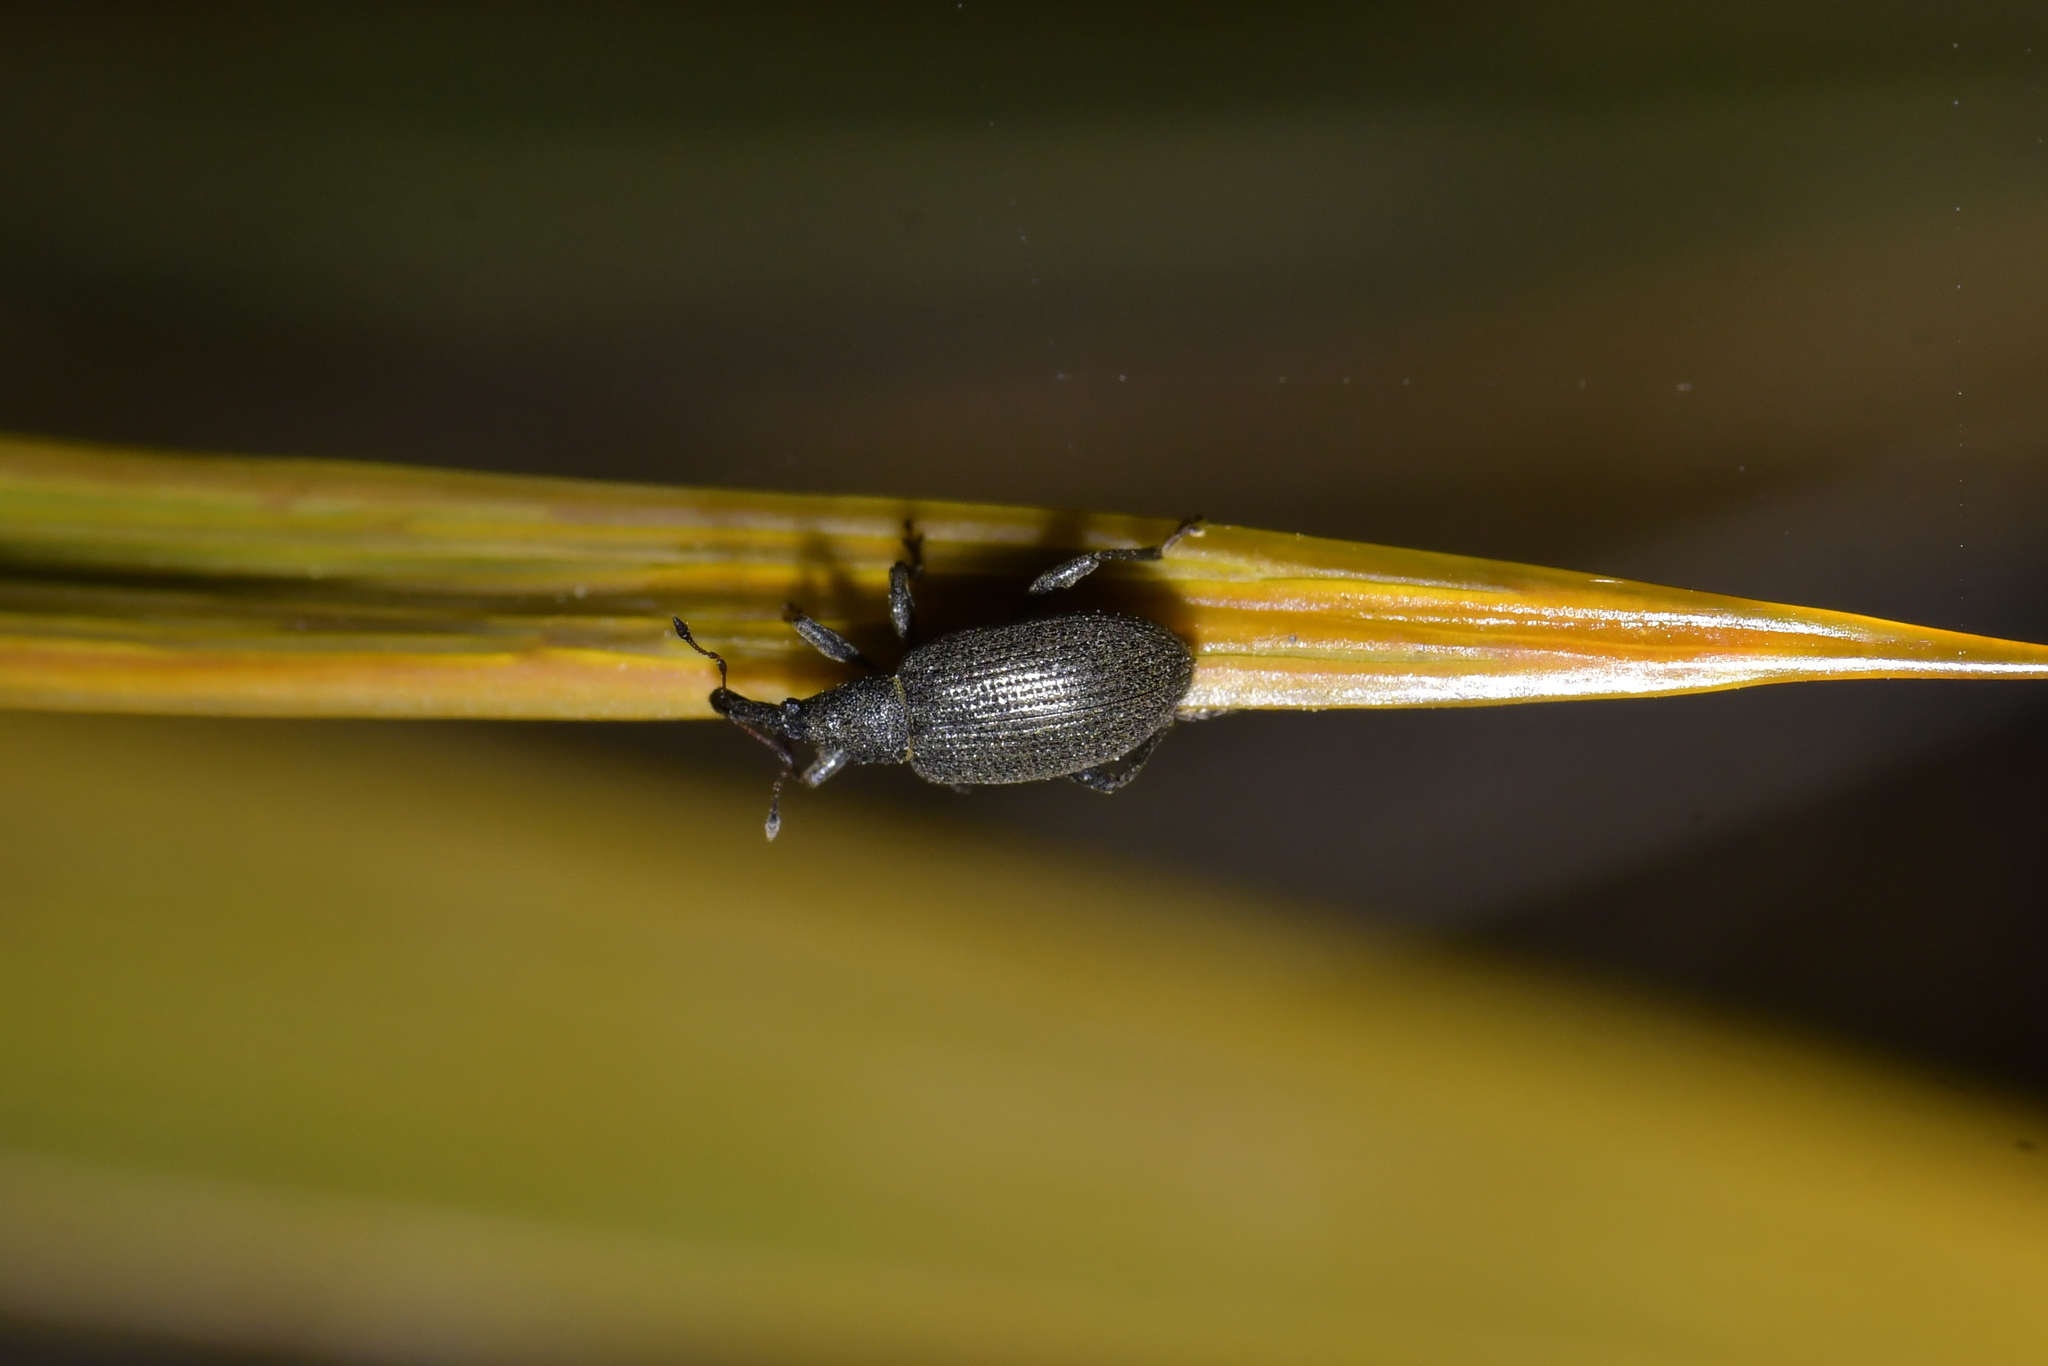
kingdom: Animalia
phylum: Arthropoda
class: Insecta
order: Coleoptera
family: Curculionidae
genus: Eugnomus
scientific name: Eugnomus
